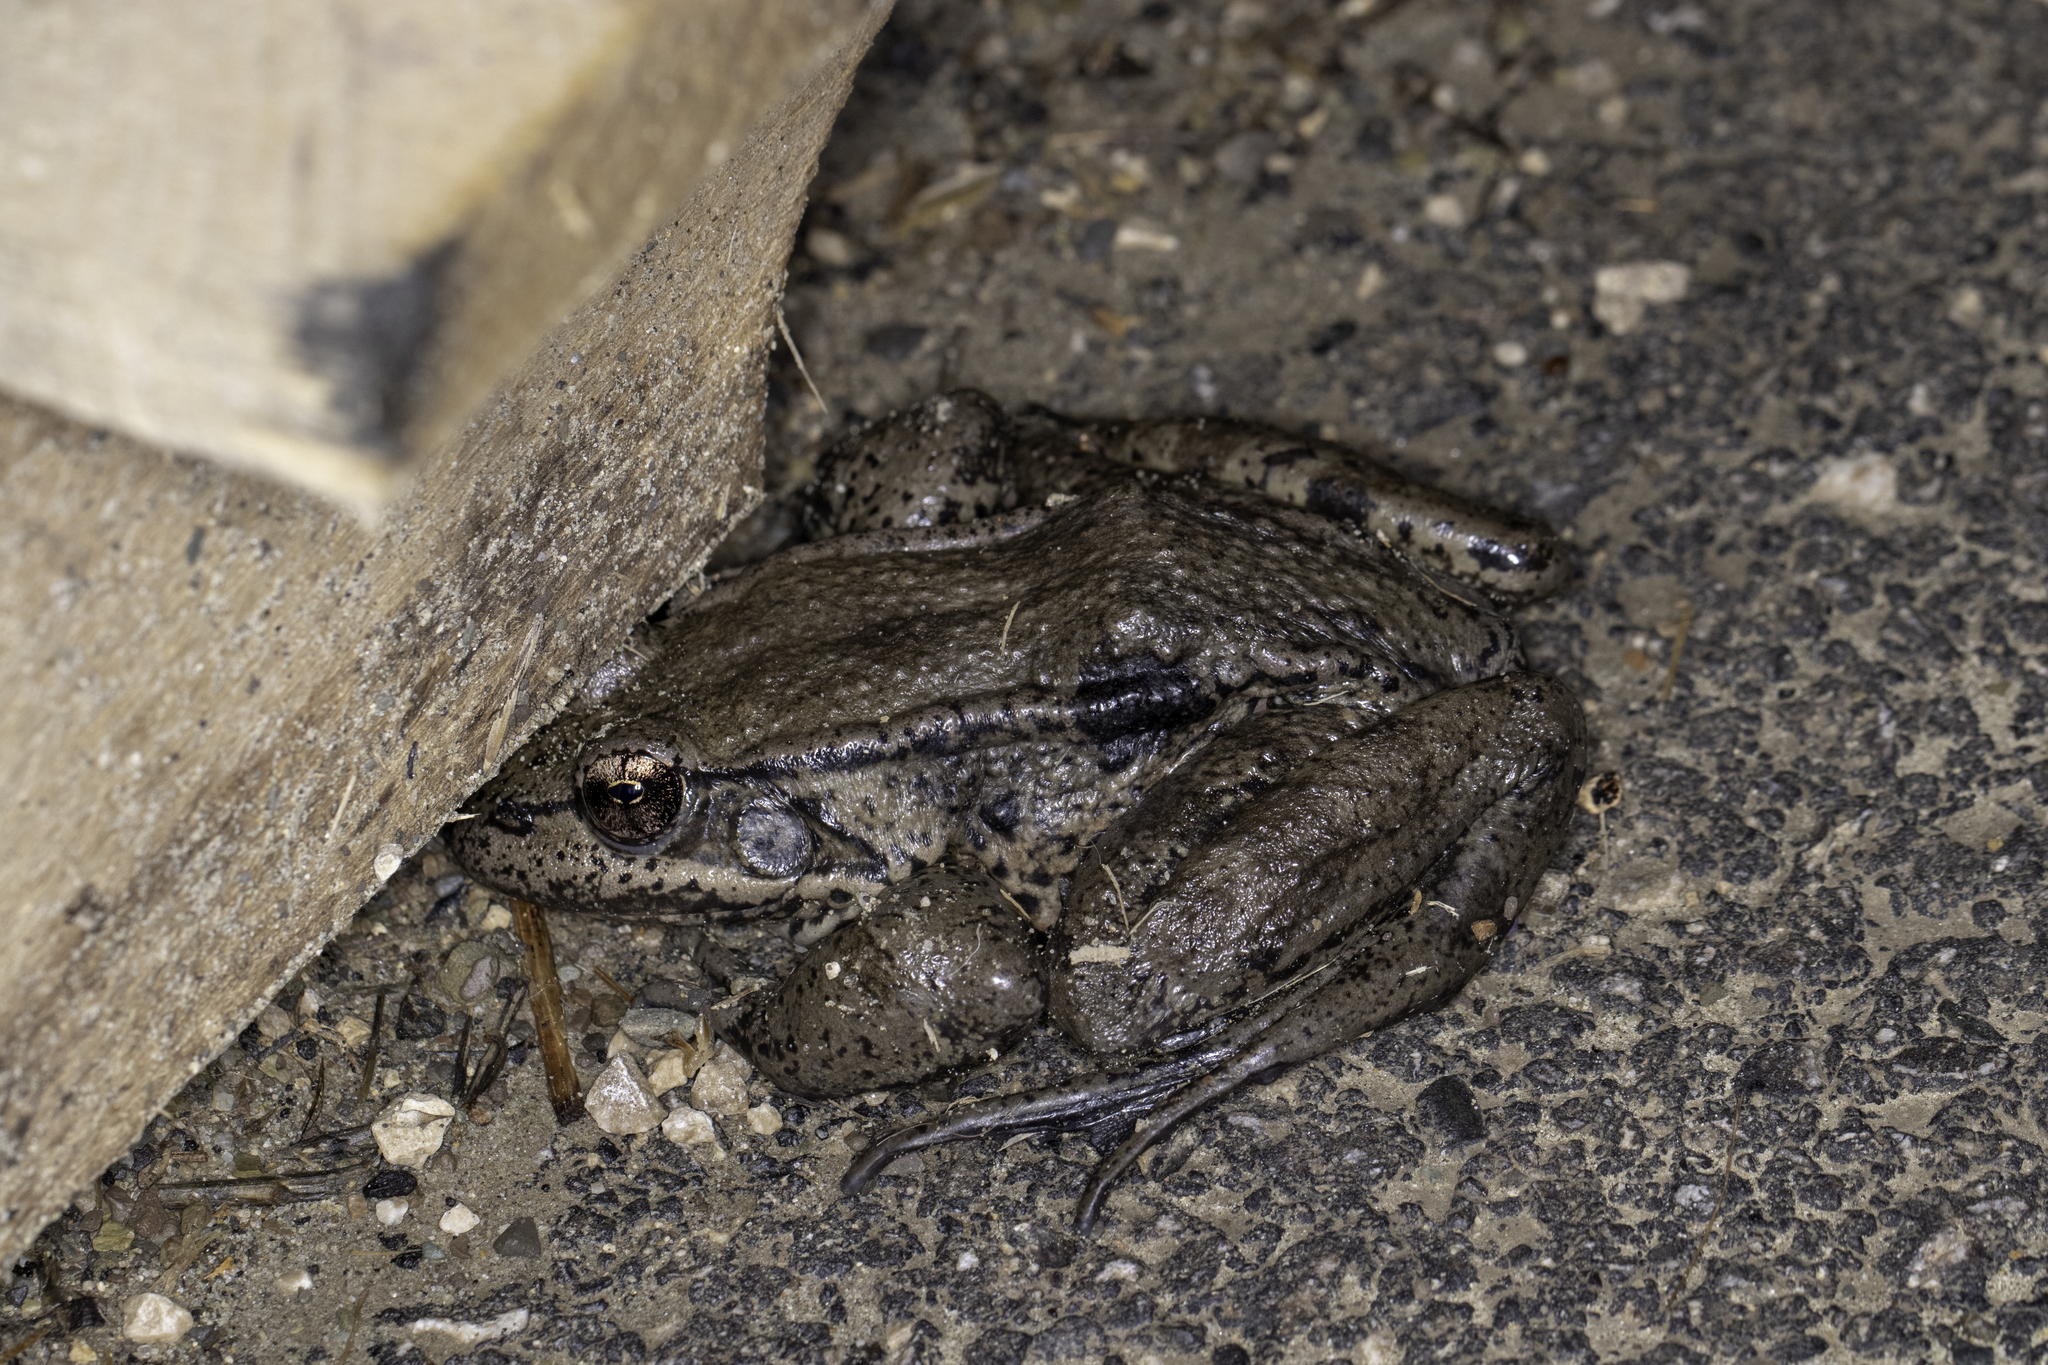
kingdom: Animalia
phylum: Chordata
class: Amphibia
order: Anura
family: Ranidae
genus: Rana
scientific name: Rana draytonii
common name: California red-legged frog
